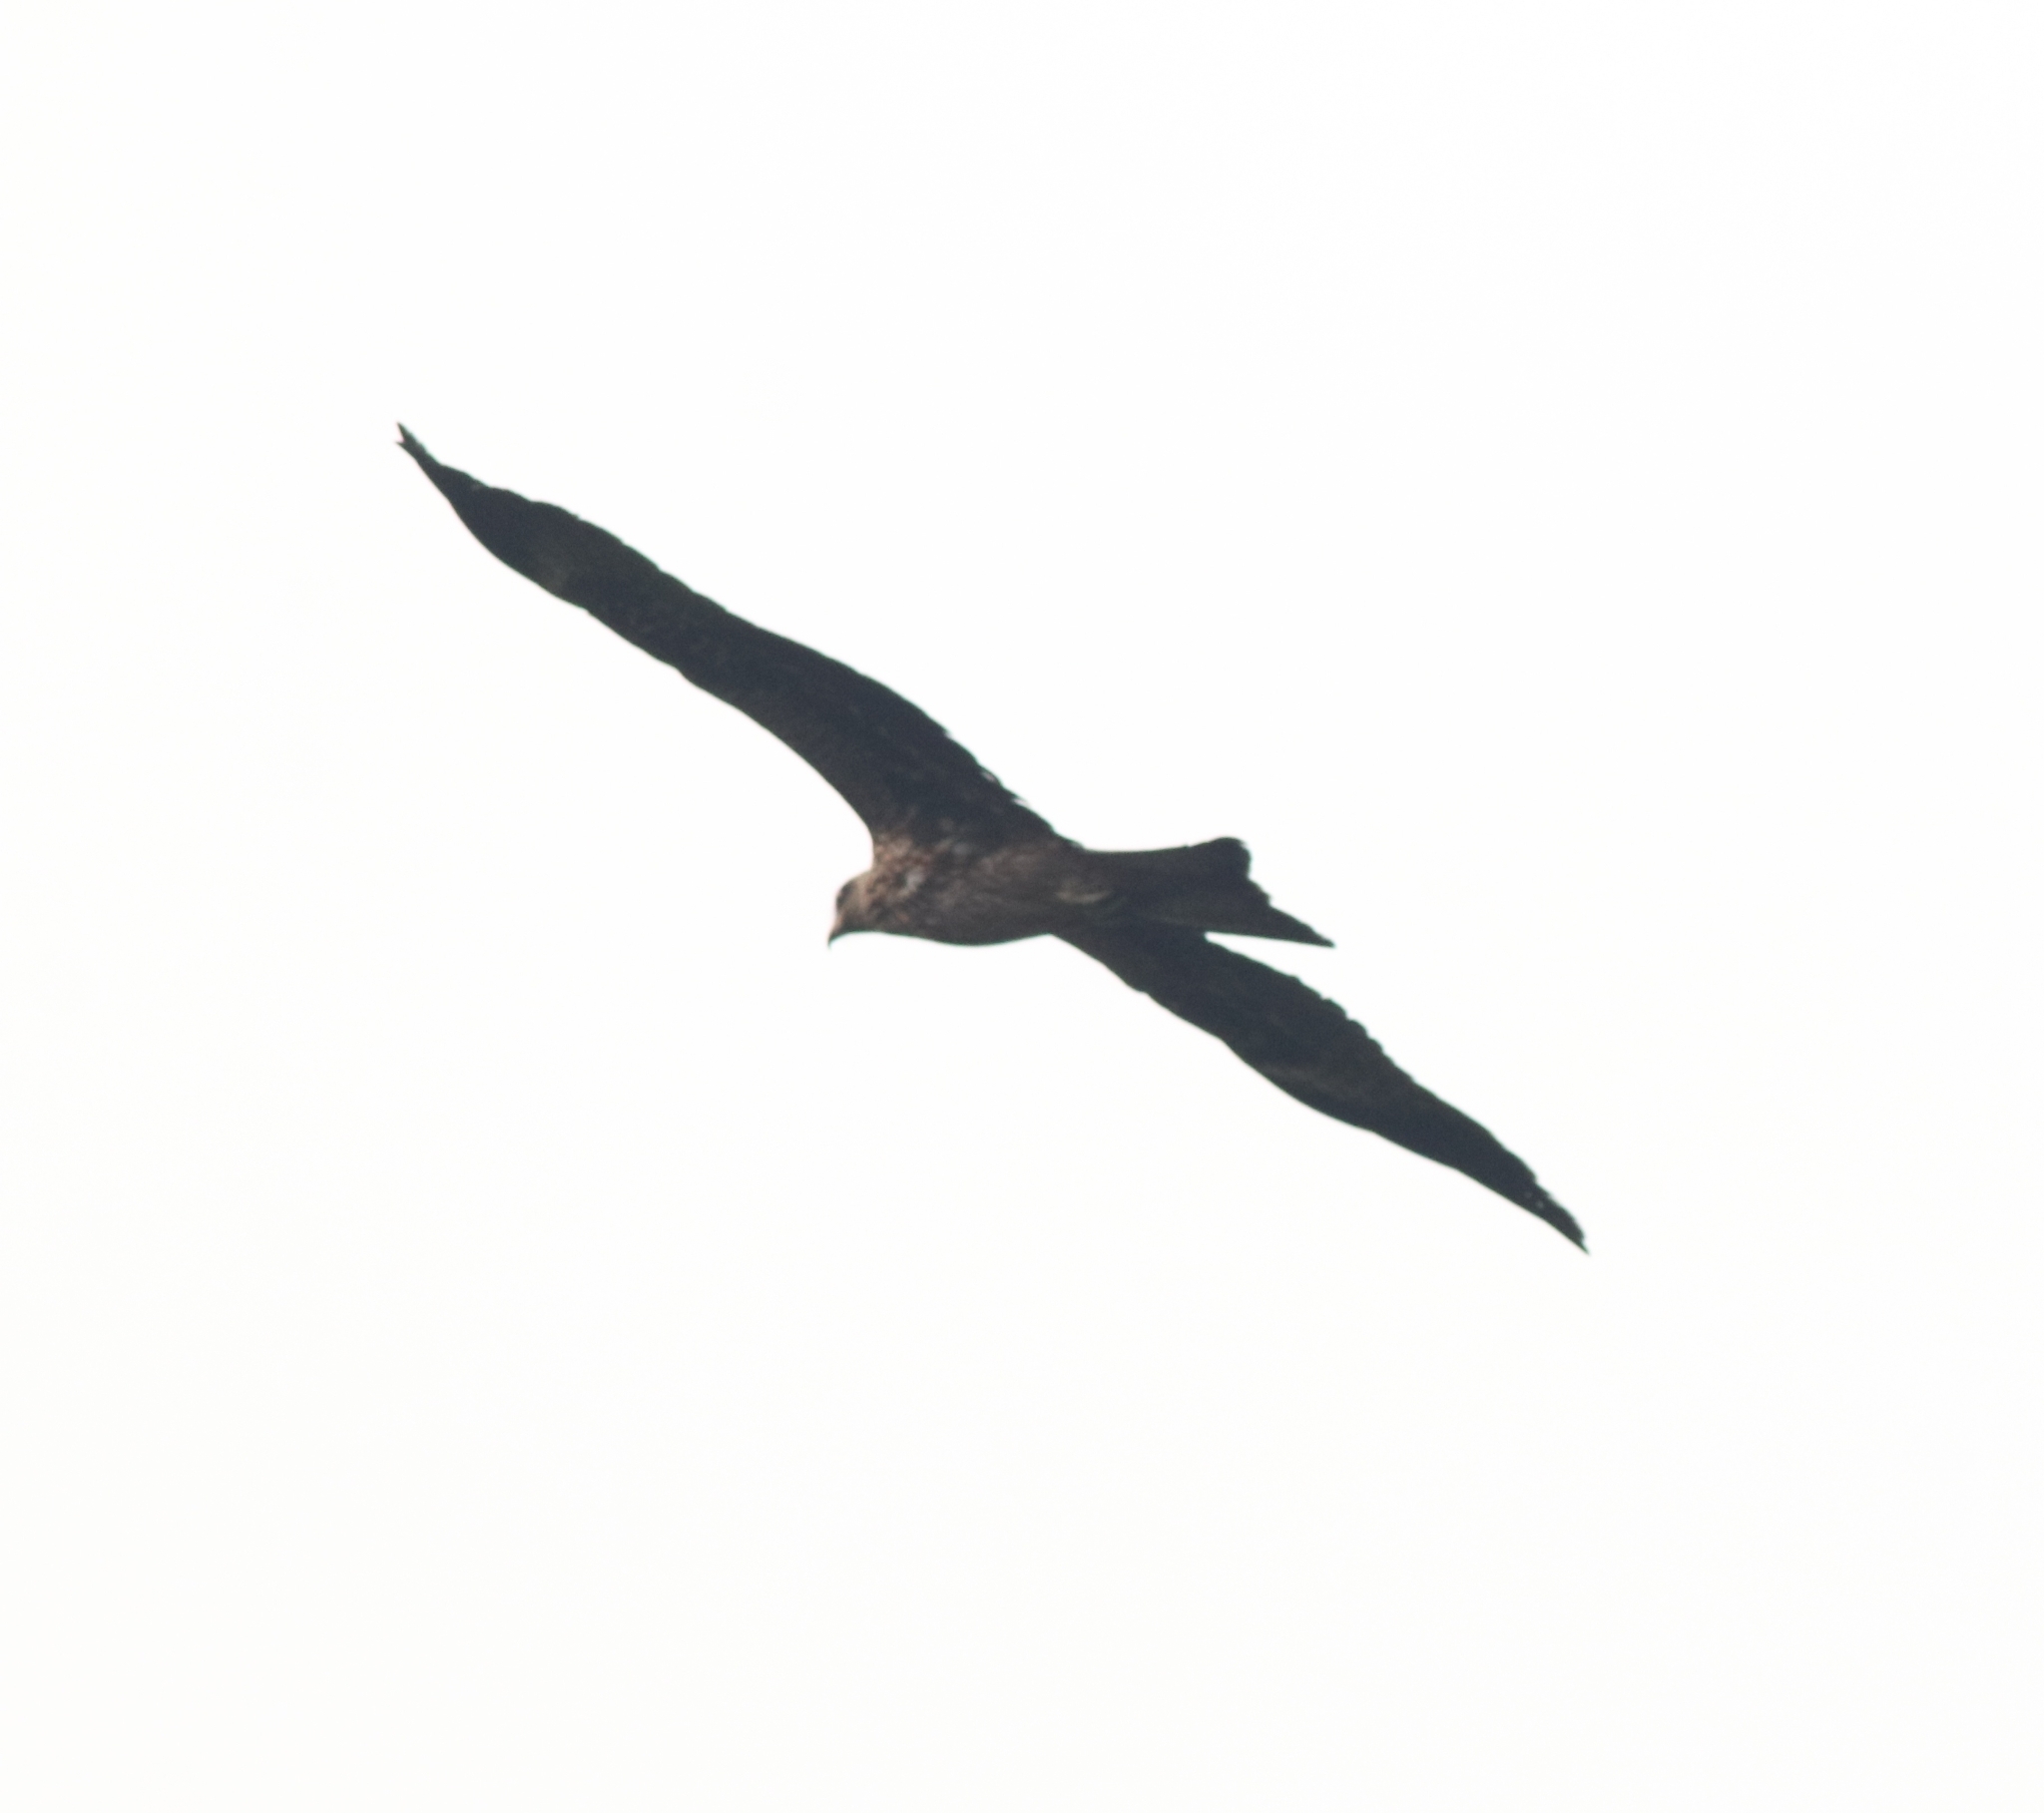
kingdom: Animalia
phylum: Chordata
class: Aves
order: Accipitriformes
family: Accipitridae
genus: Milvus
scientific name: Milvus migrans
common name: Black kite
